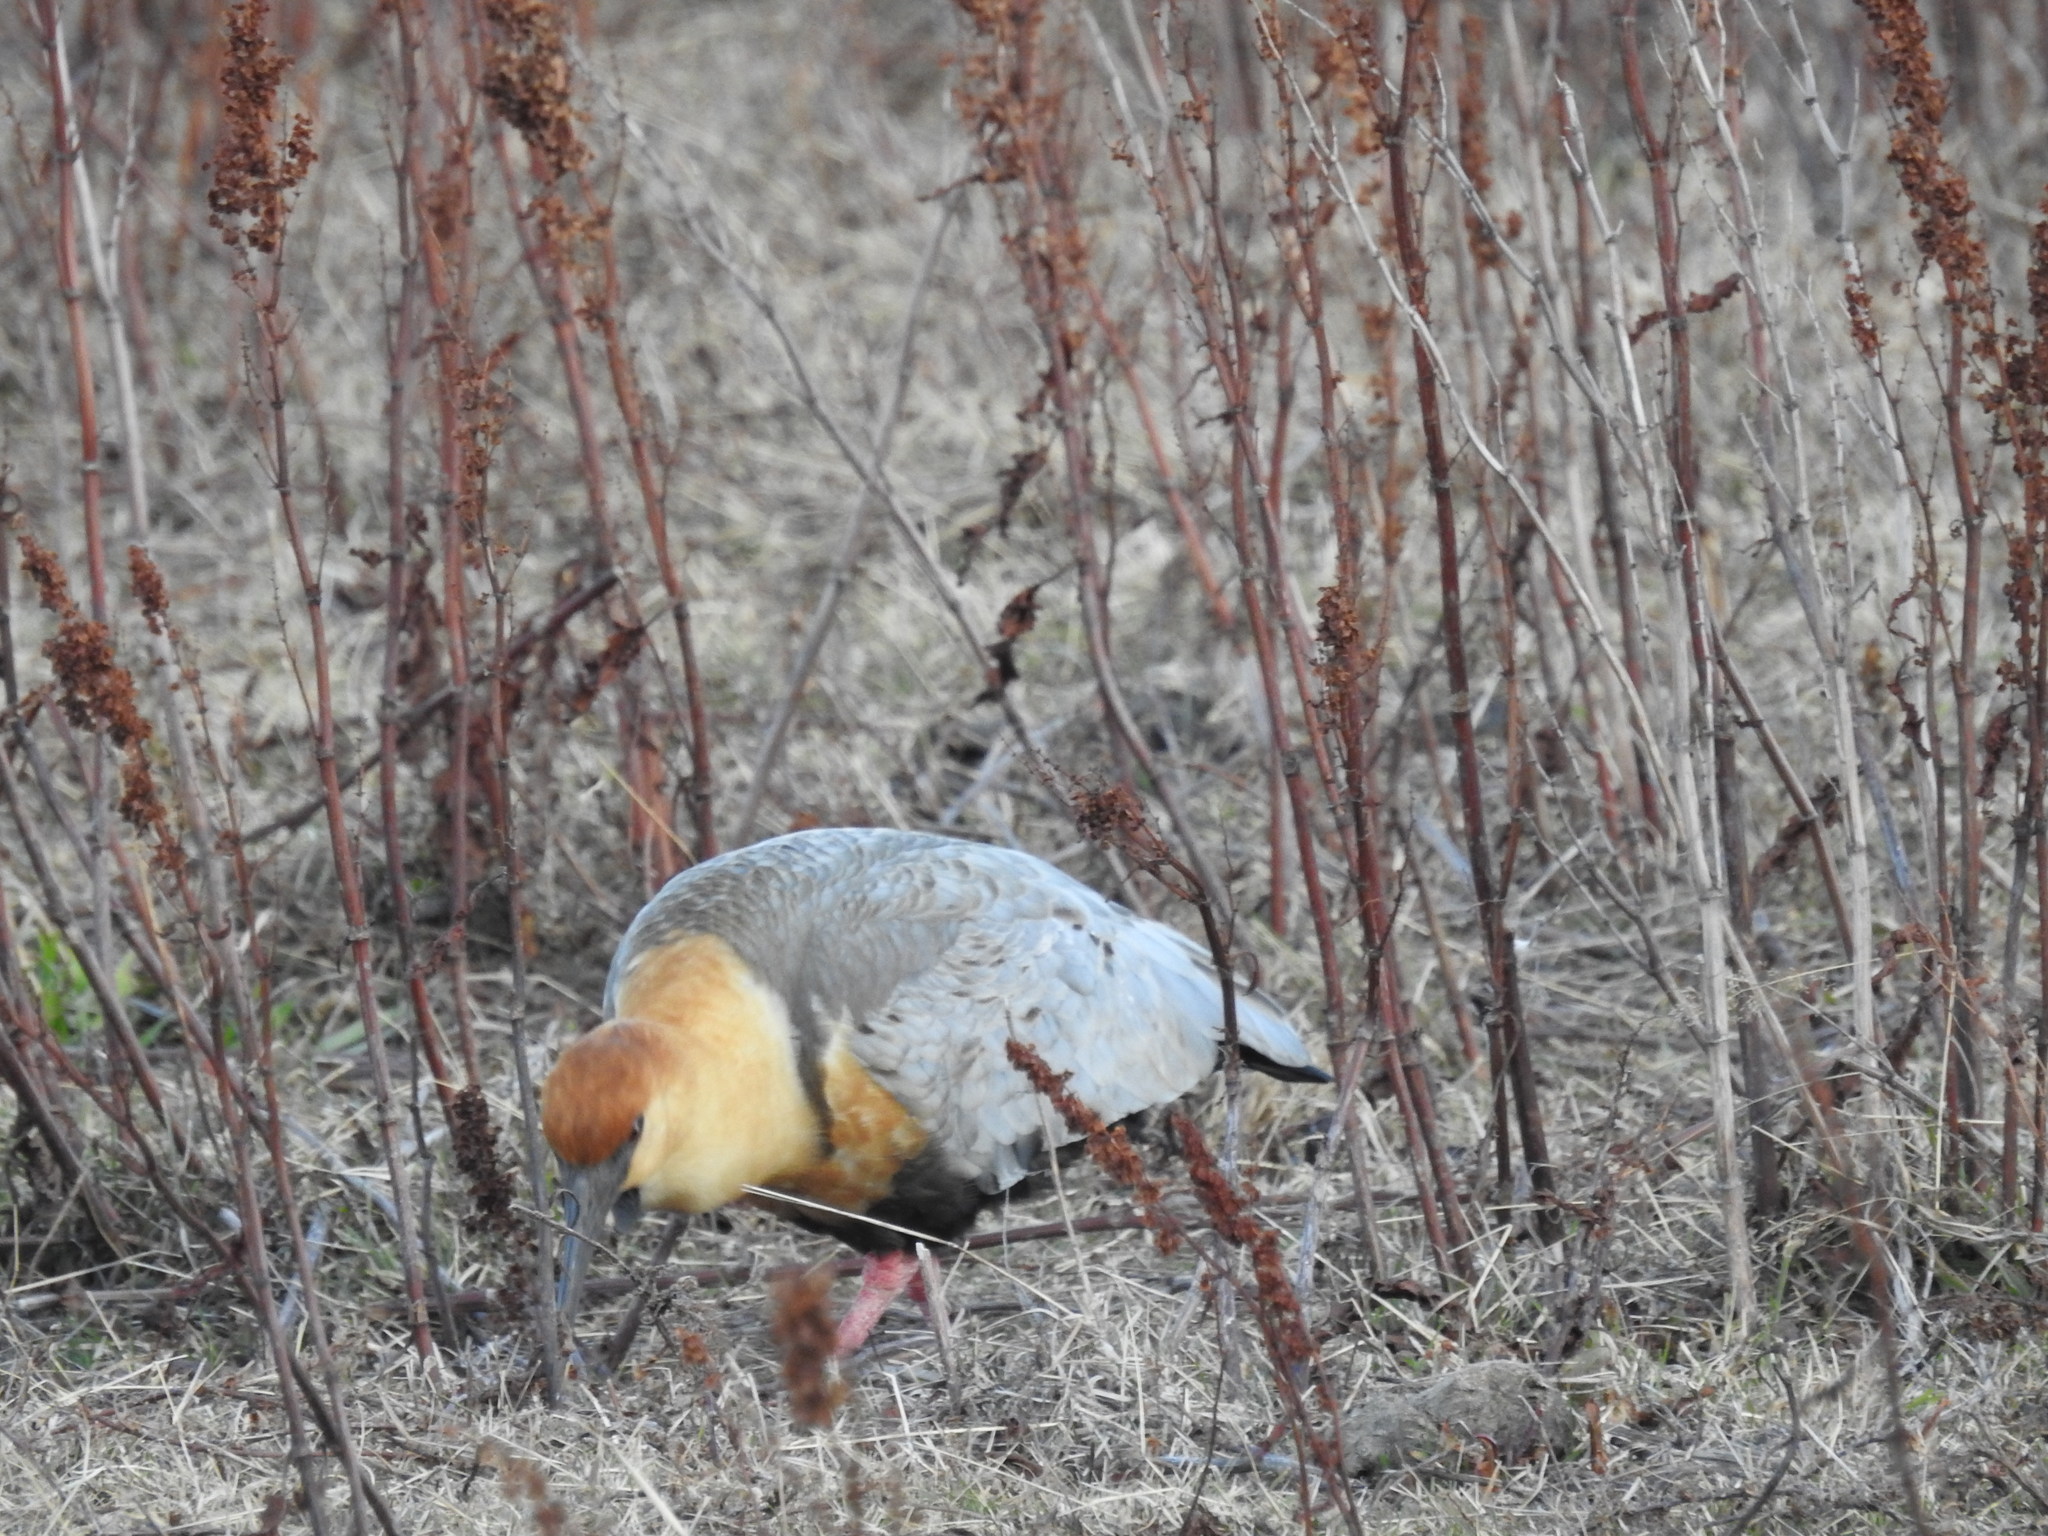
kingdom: Animalia
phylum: Chordata
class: Aves
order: Pelecaniformes
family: Threskiornithidae
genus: Theristicus
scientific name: Theristicus melanopis
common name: Black-faced ibis
